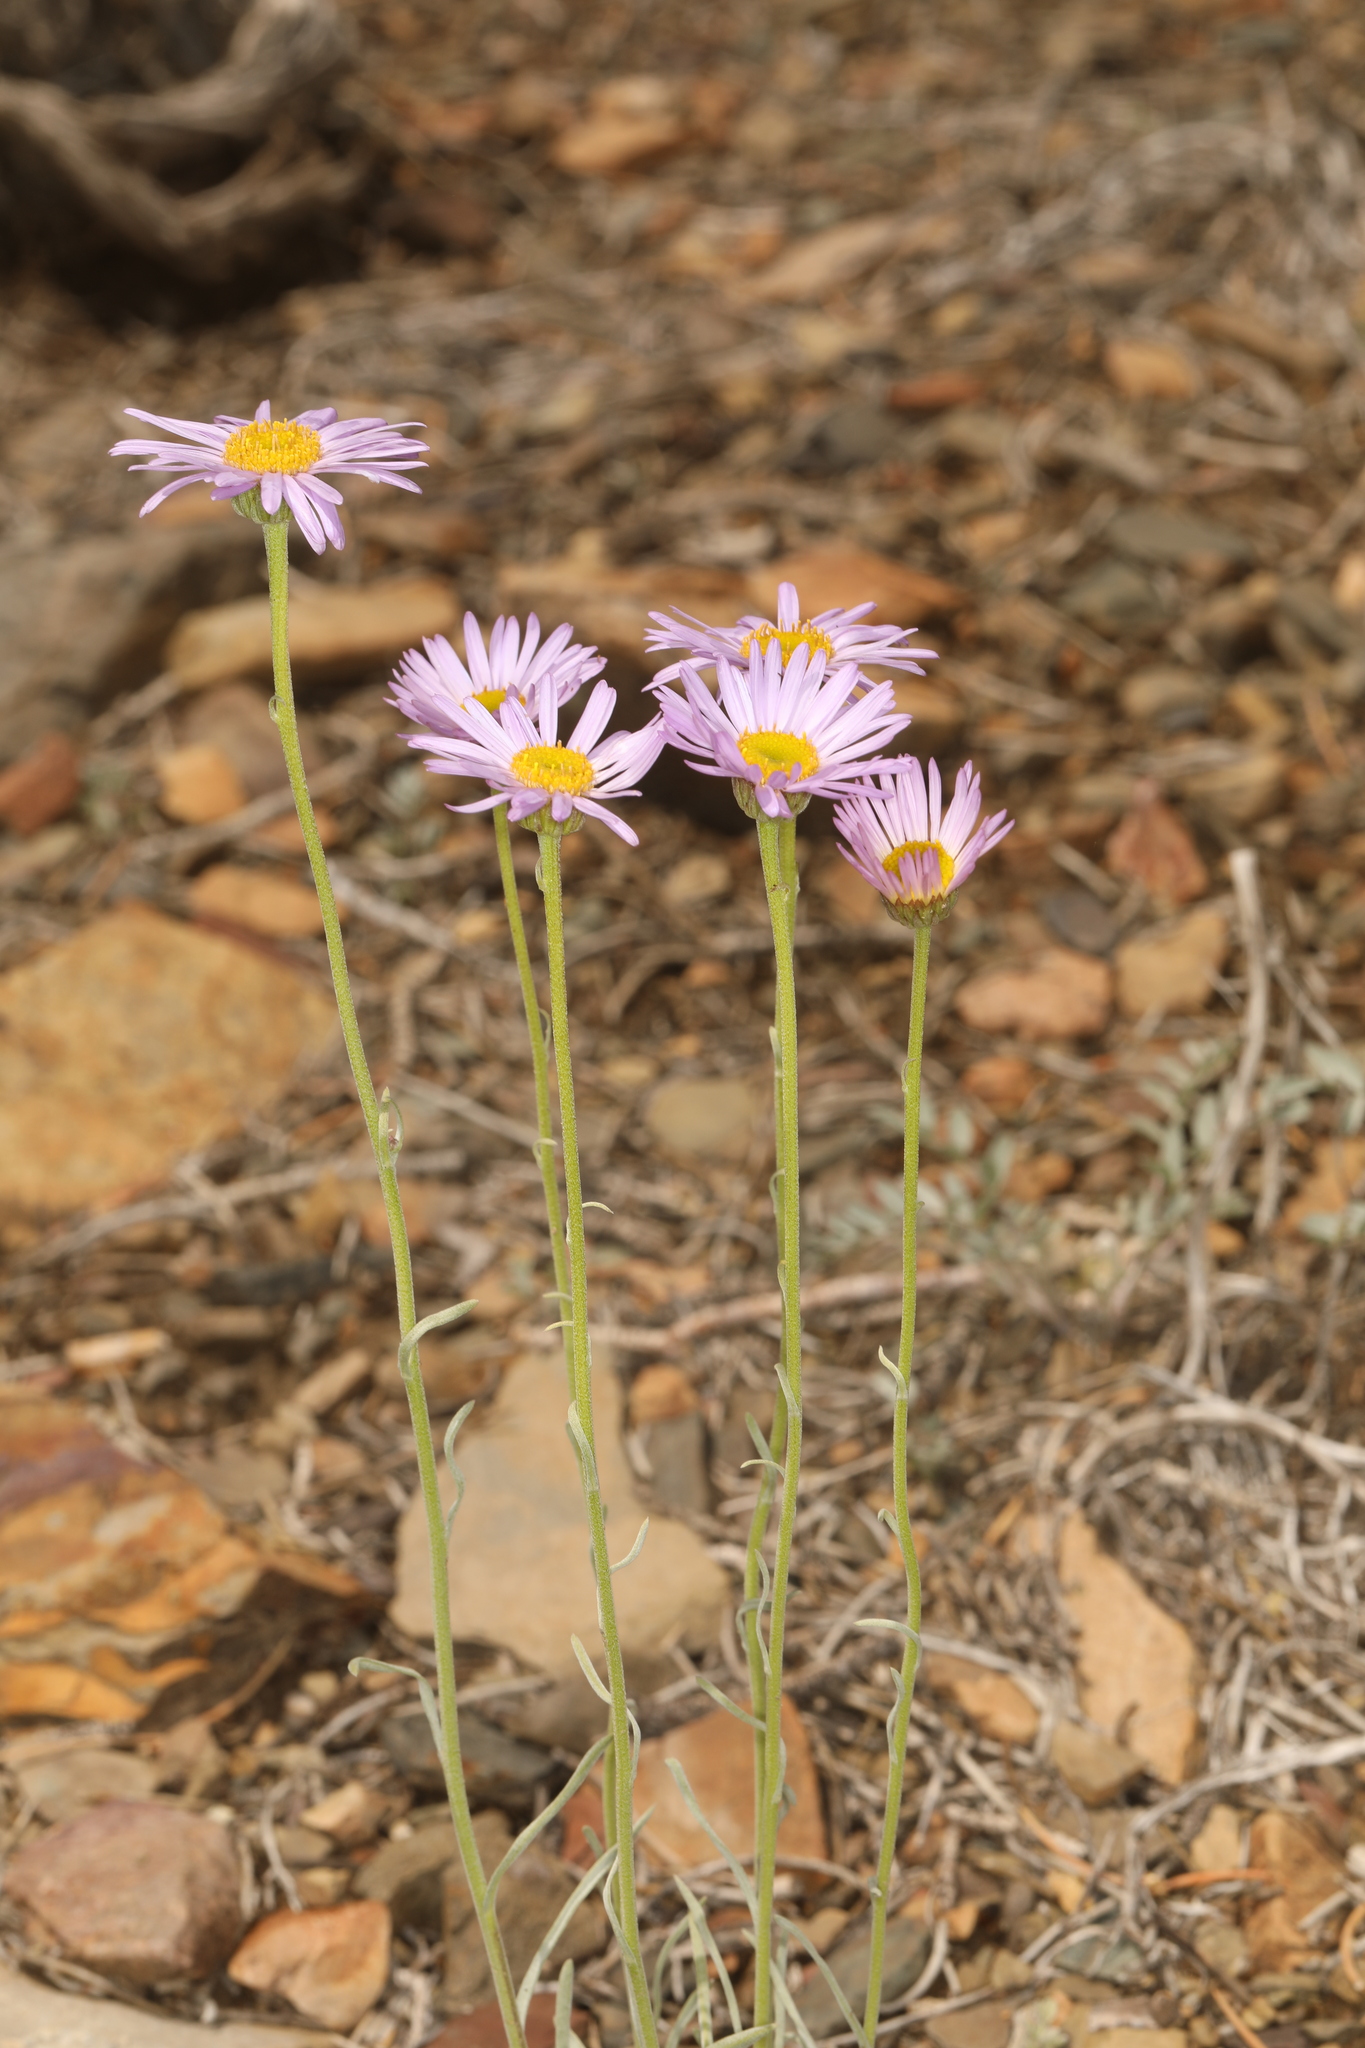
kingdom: Plantae
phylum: Tracheophyta
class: Magnoliopsida
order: Asterales
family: Asteraceae
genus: Erigeron
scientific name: Erigeron argentatus
